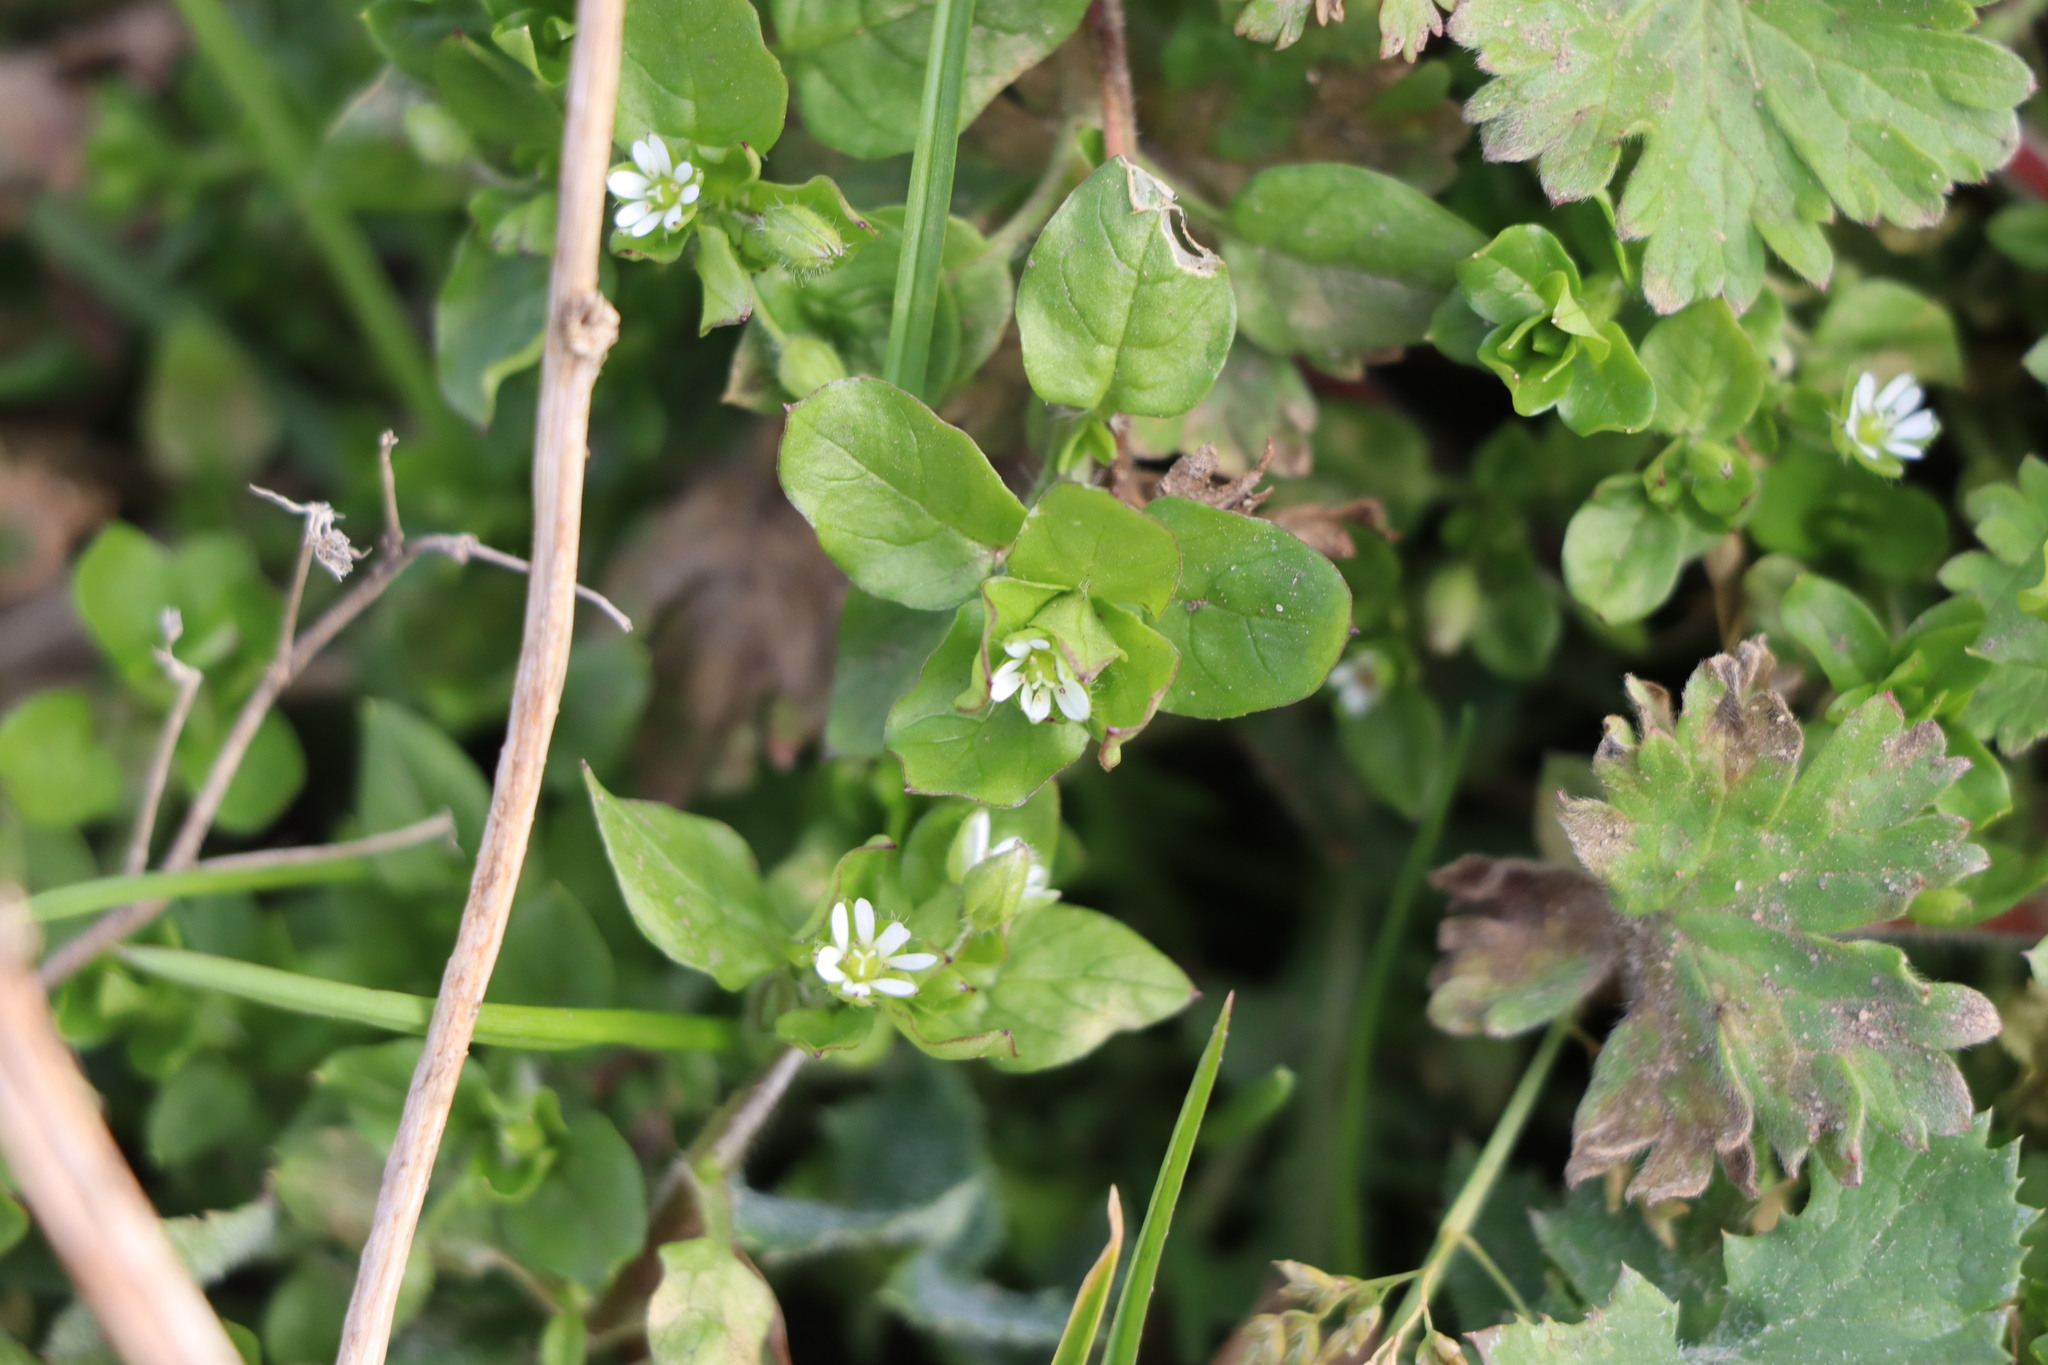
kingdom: Plantae
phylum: Tracheophyta
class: Magnoliopsida
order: Caryophyllales
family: Caryophyllaceae
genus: Stellaria
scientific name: Stellaria media
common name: Common chickweed
